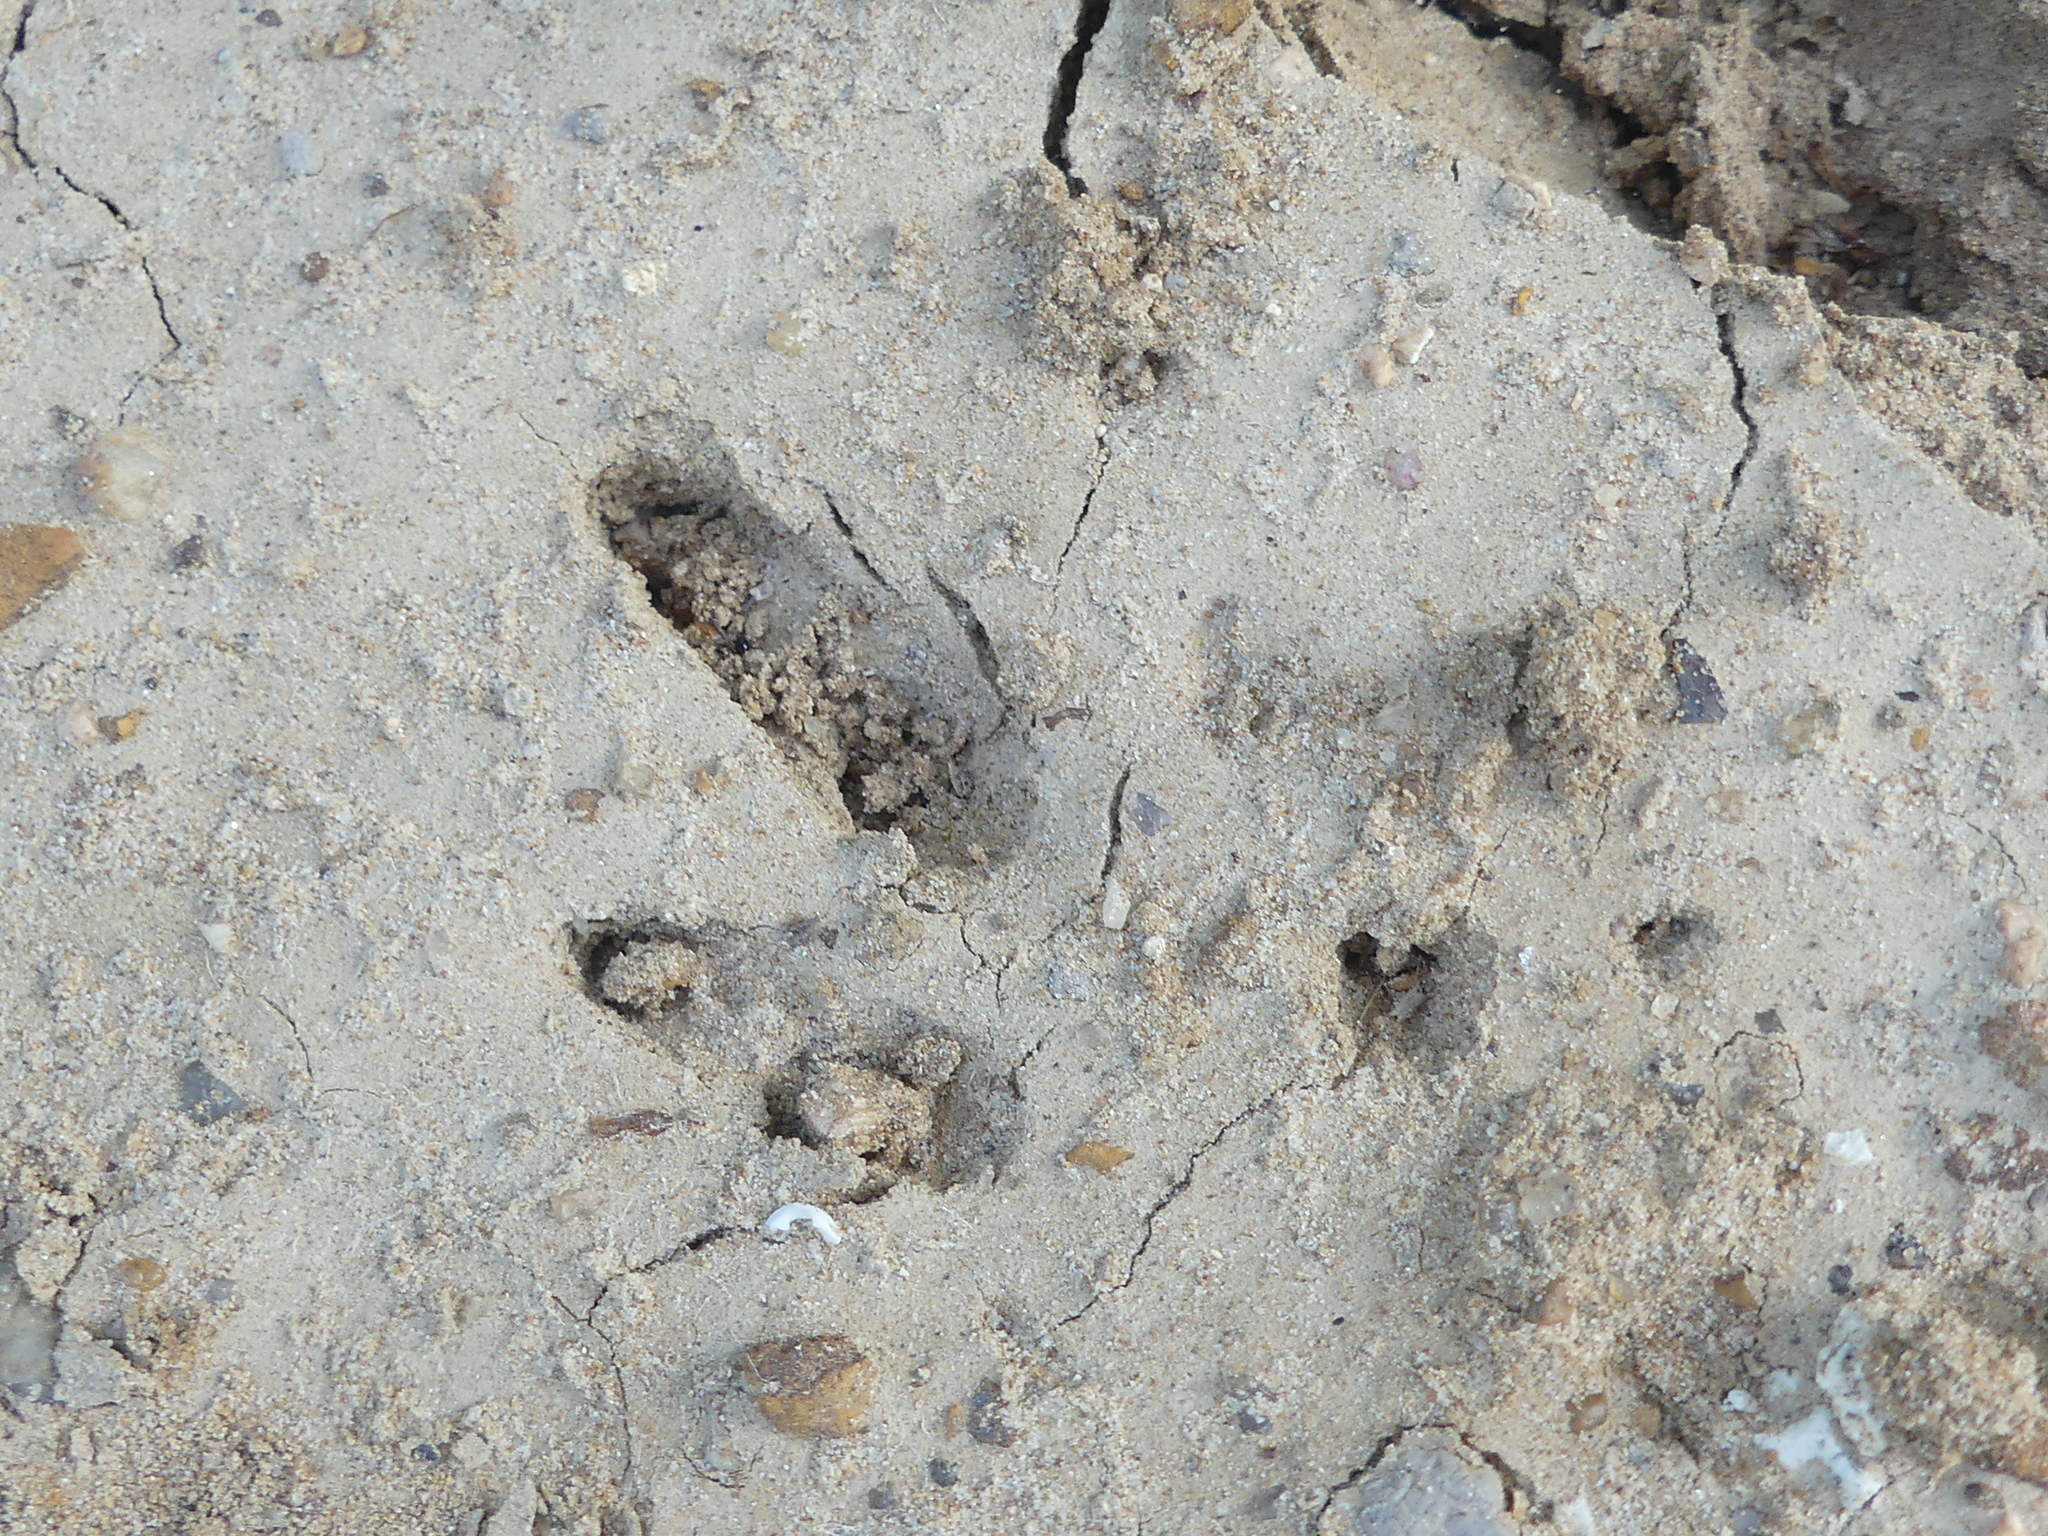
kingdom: Animalia
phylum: Chordata
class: Mammalia
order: Cingulata
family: Dasypodidae
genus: Dasypus
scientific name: Dasypus novemcinctus
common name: Nine-banded armadillo
